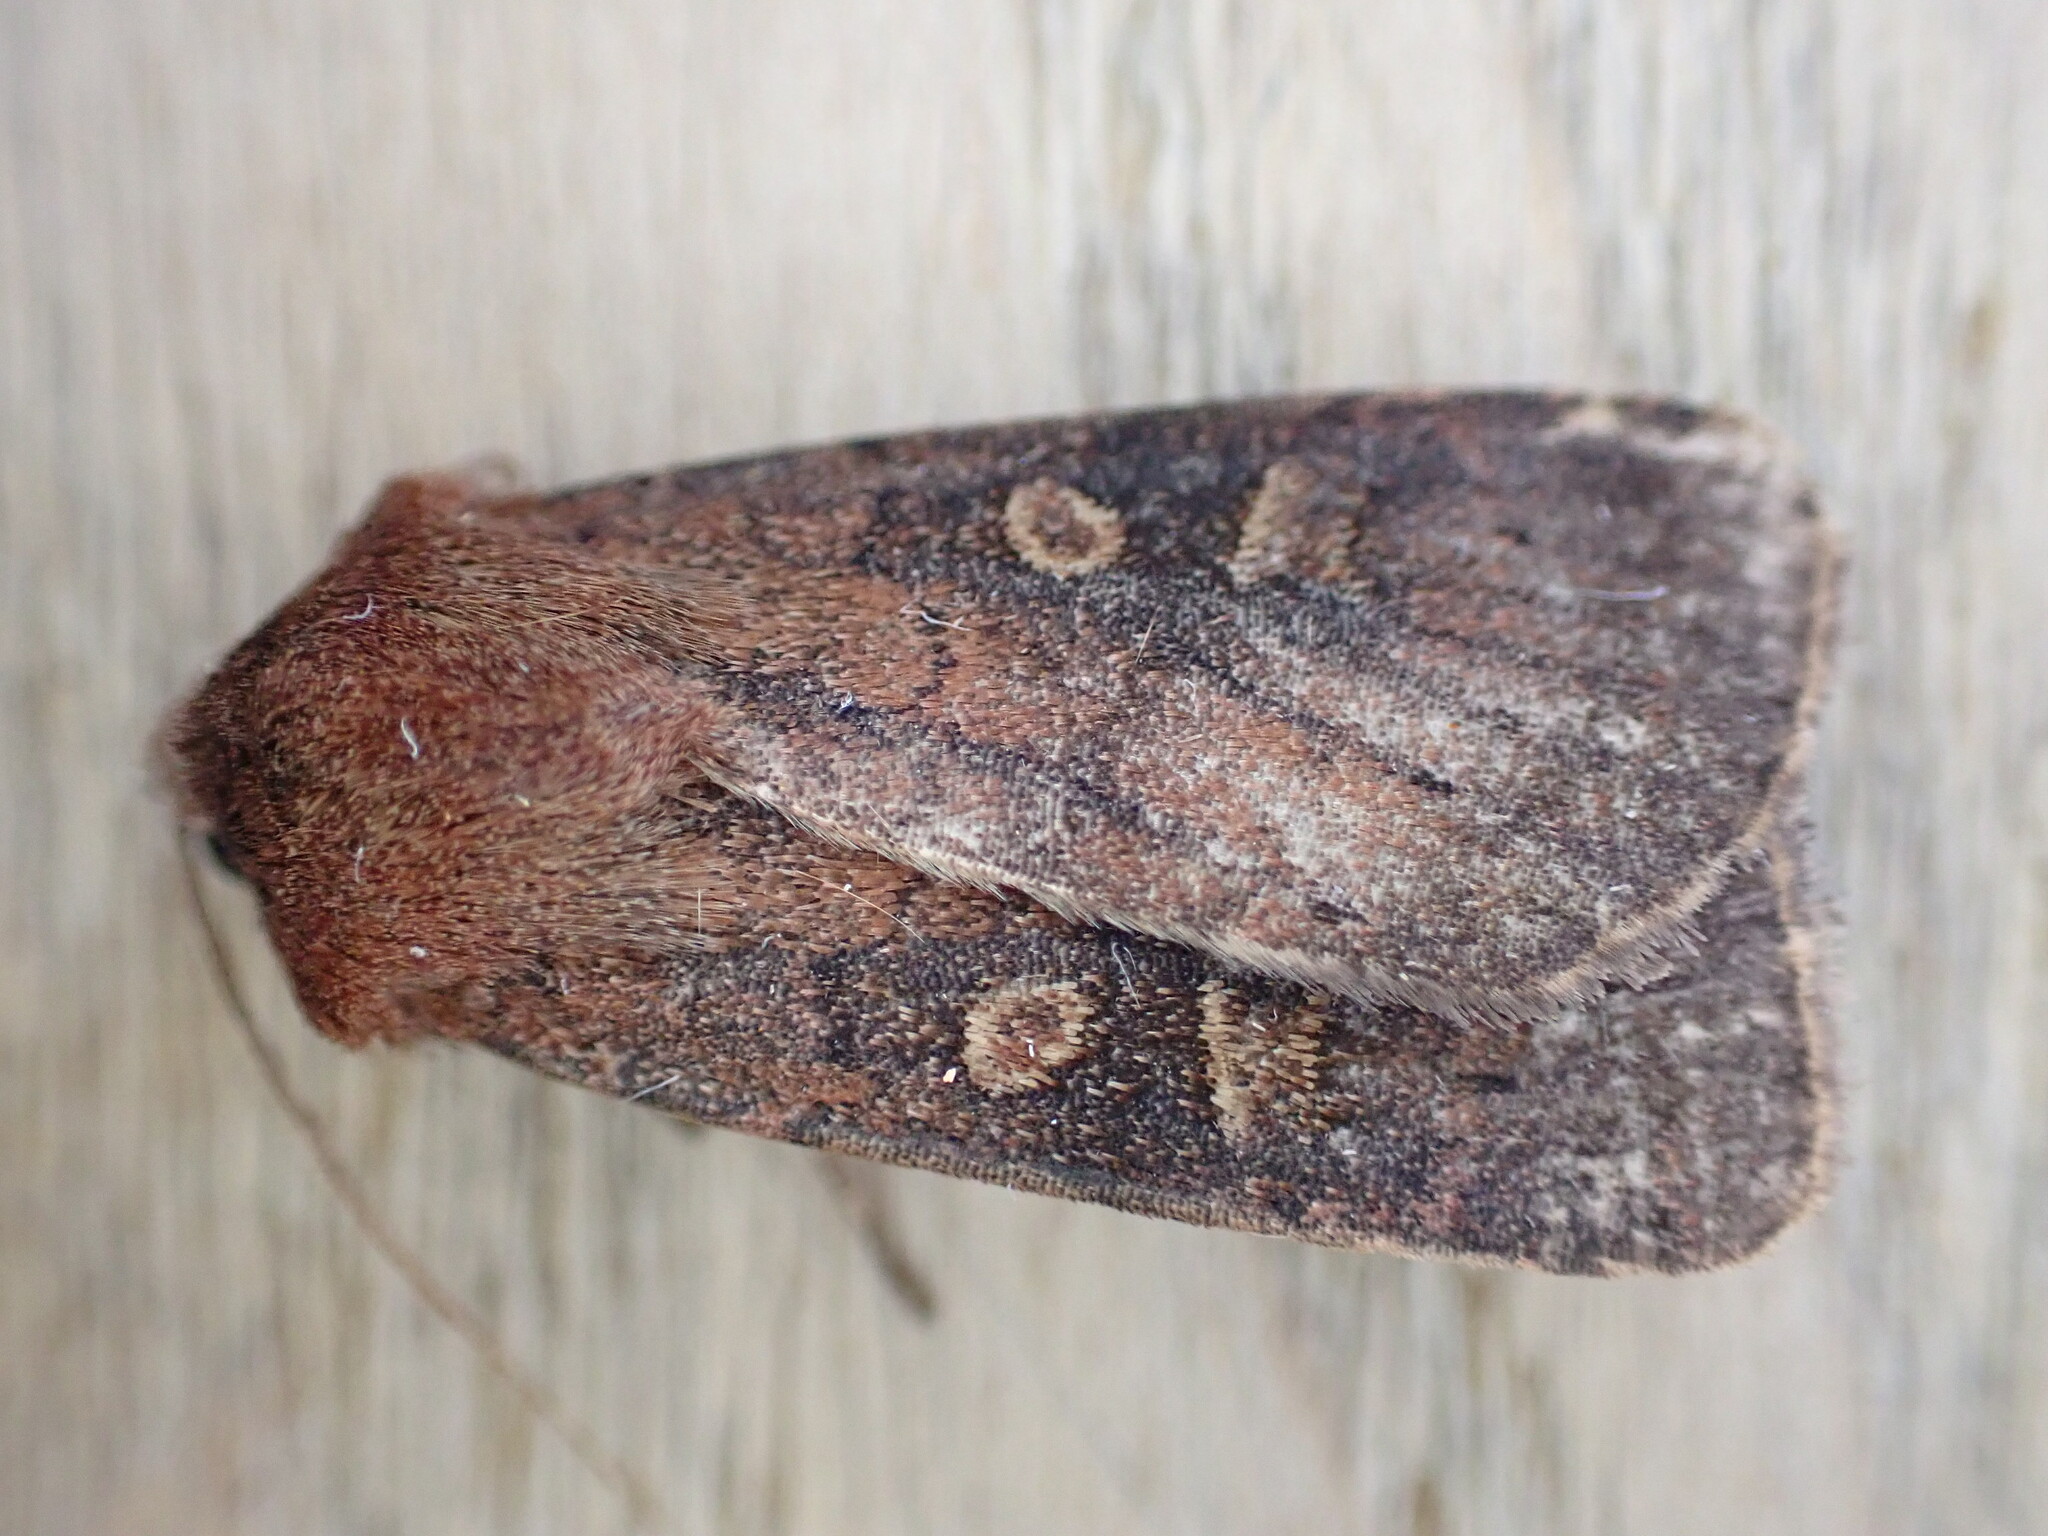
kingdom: Animalia
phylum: Arthropoda
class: Insecta
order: Lepidoptera
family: Noctuidae
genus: Xestia
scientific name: Xestia xanthographa
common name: Square-spot rustic
